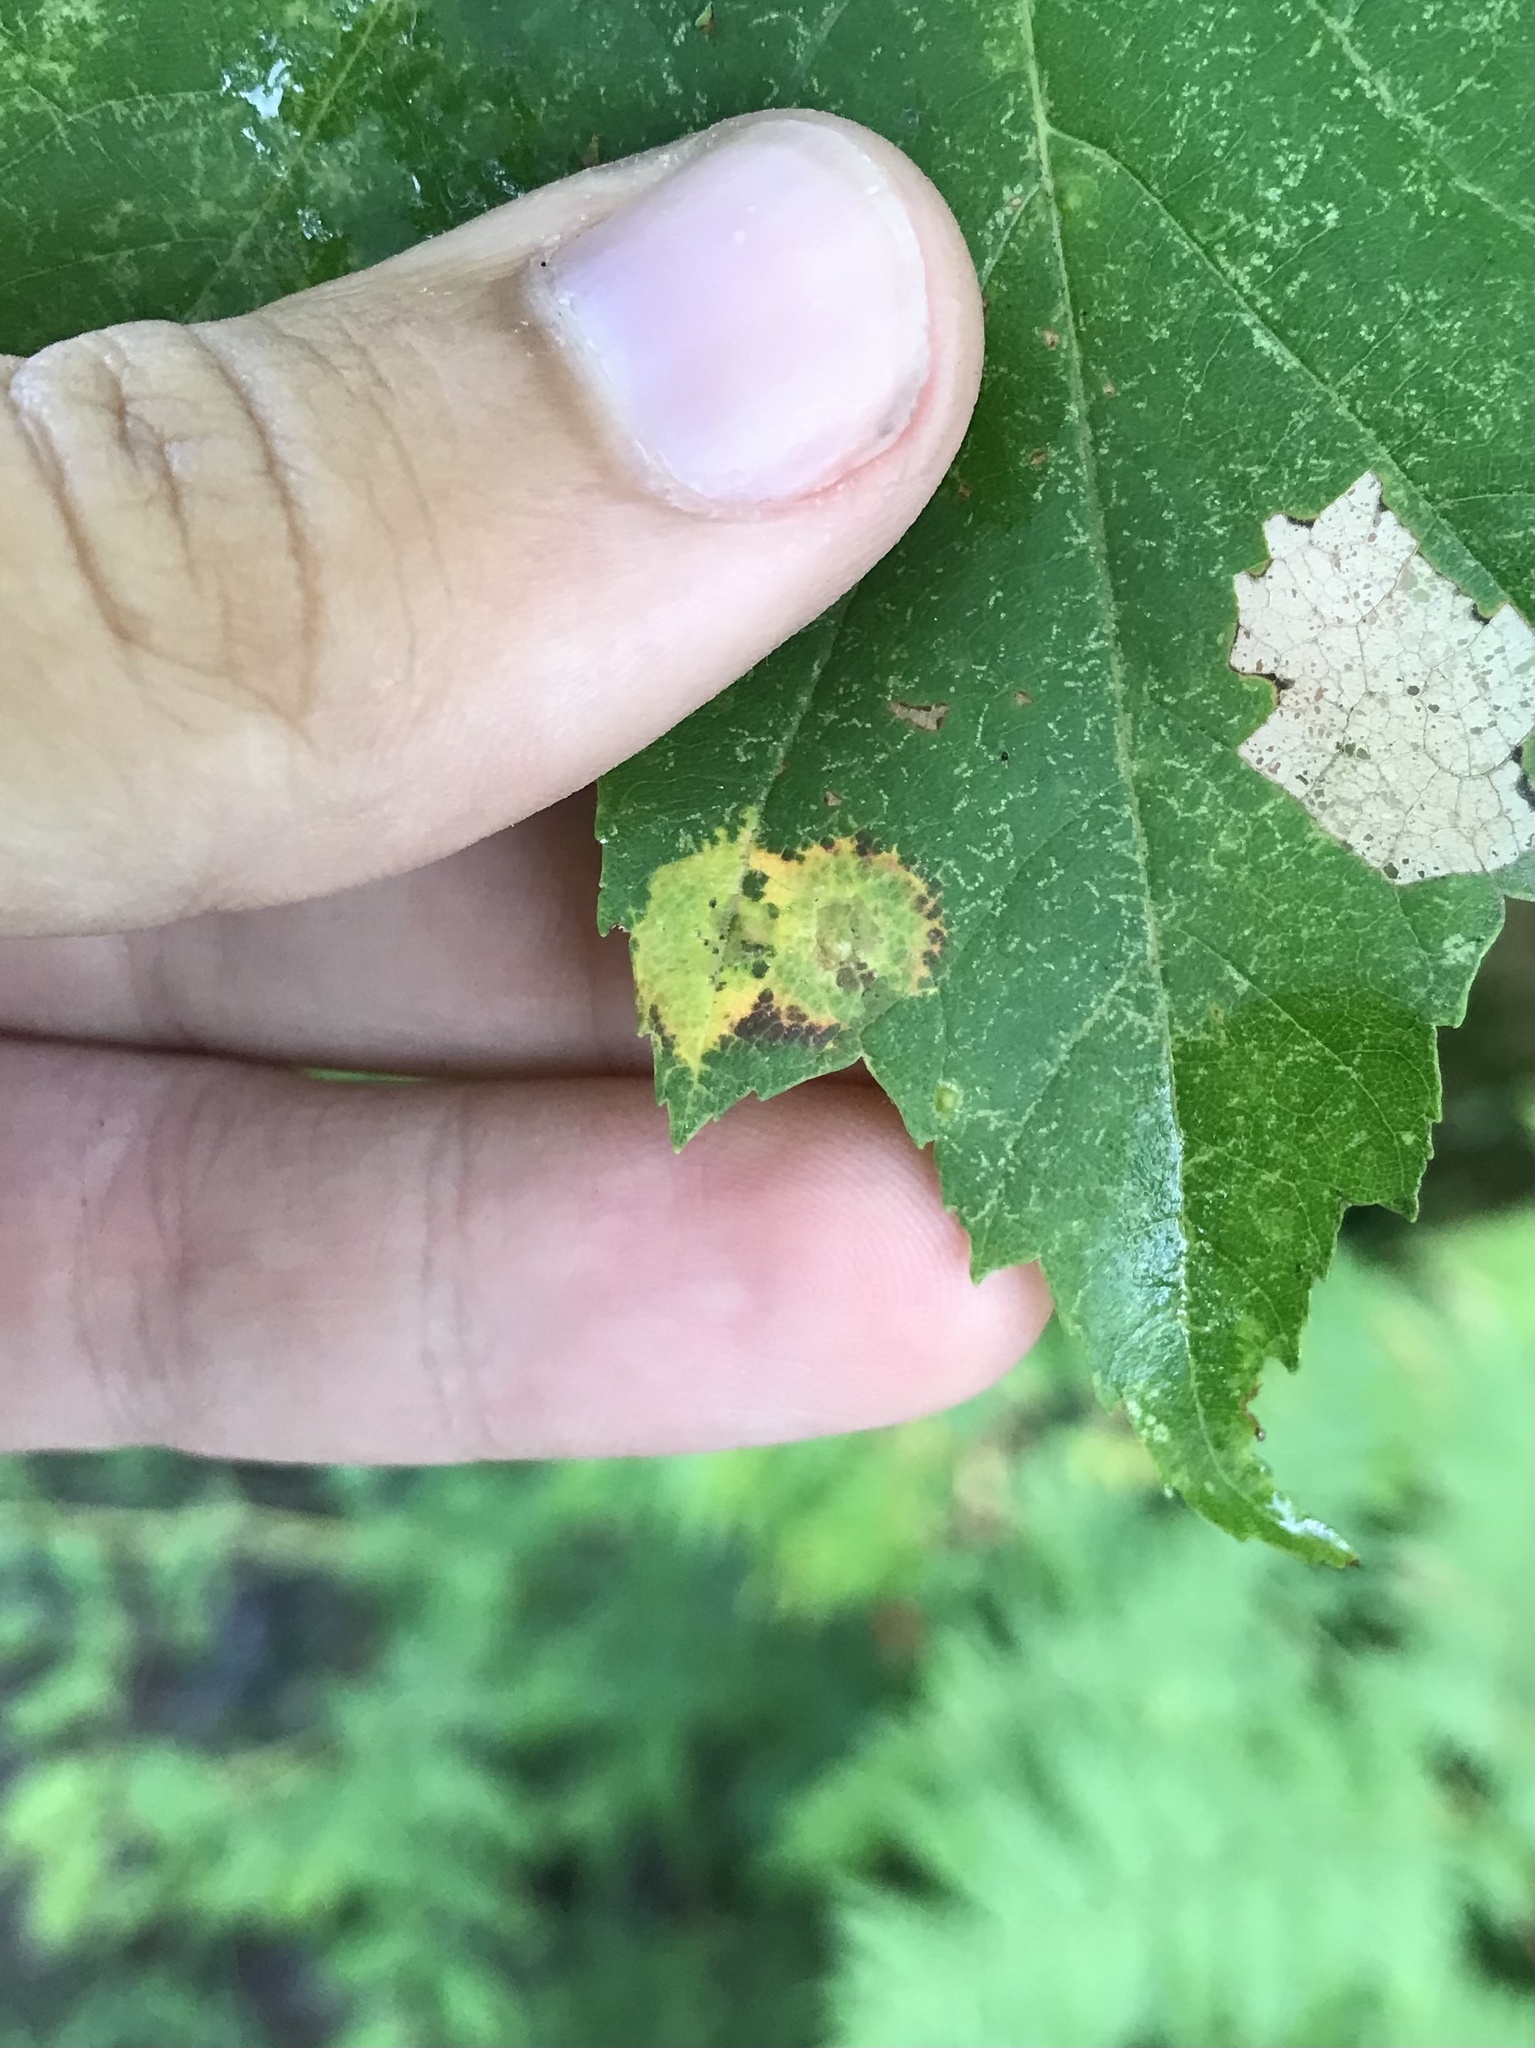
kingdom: Animalia
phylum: Arthropoda
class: Insecta
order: Diptera
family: Cecidomyiidae
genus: Acericecis
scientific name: Acericecis ocellaris
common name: Ocellate gall midge
